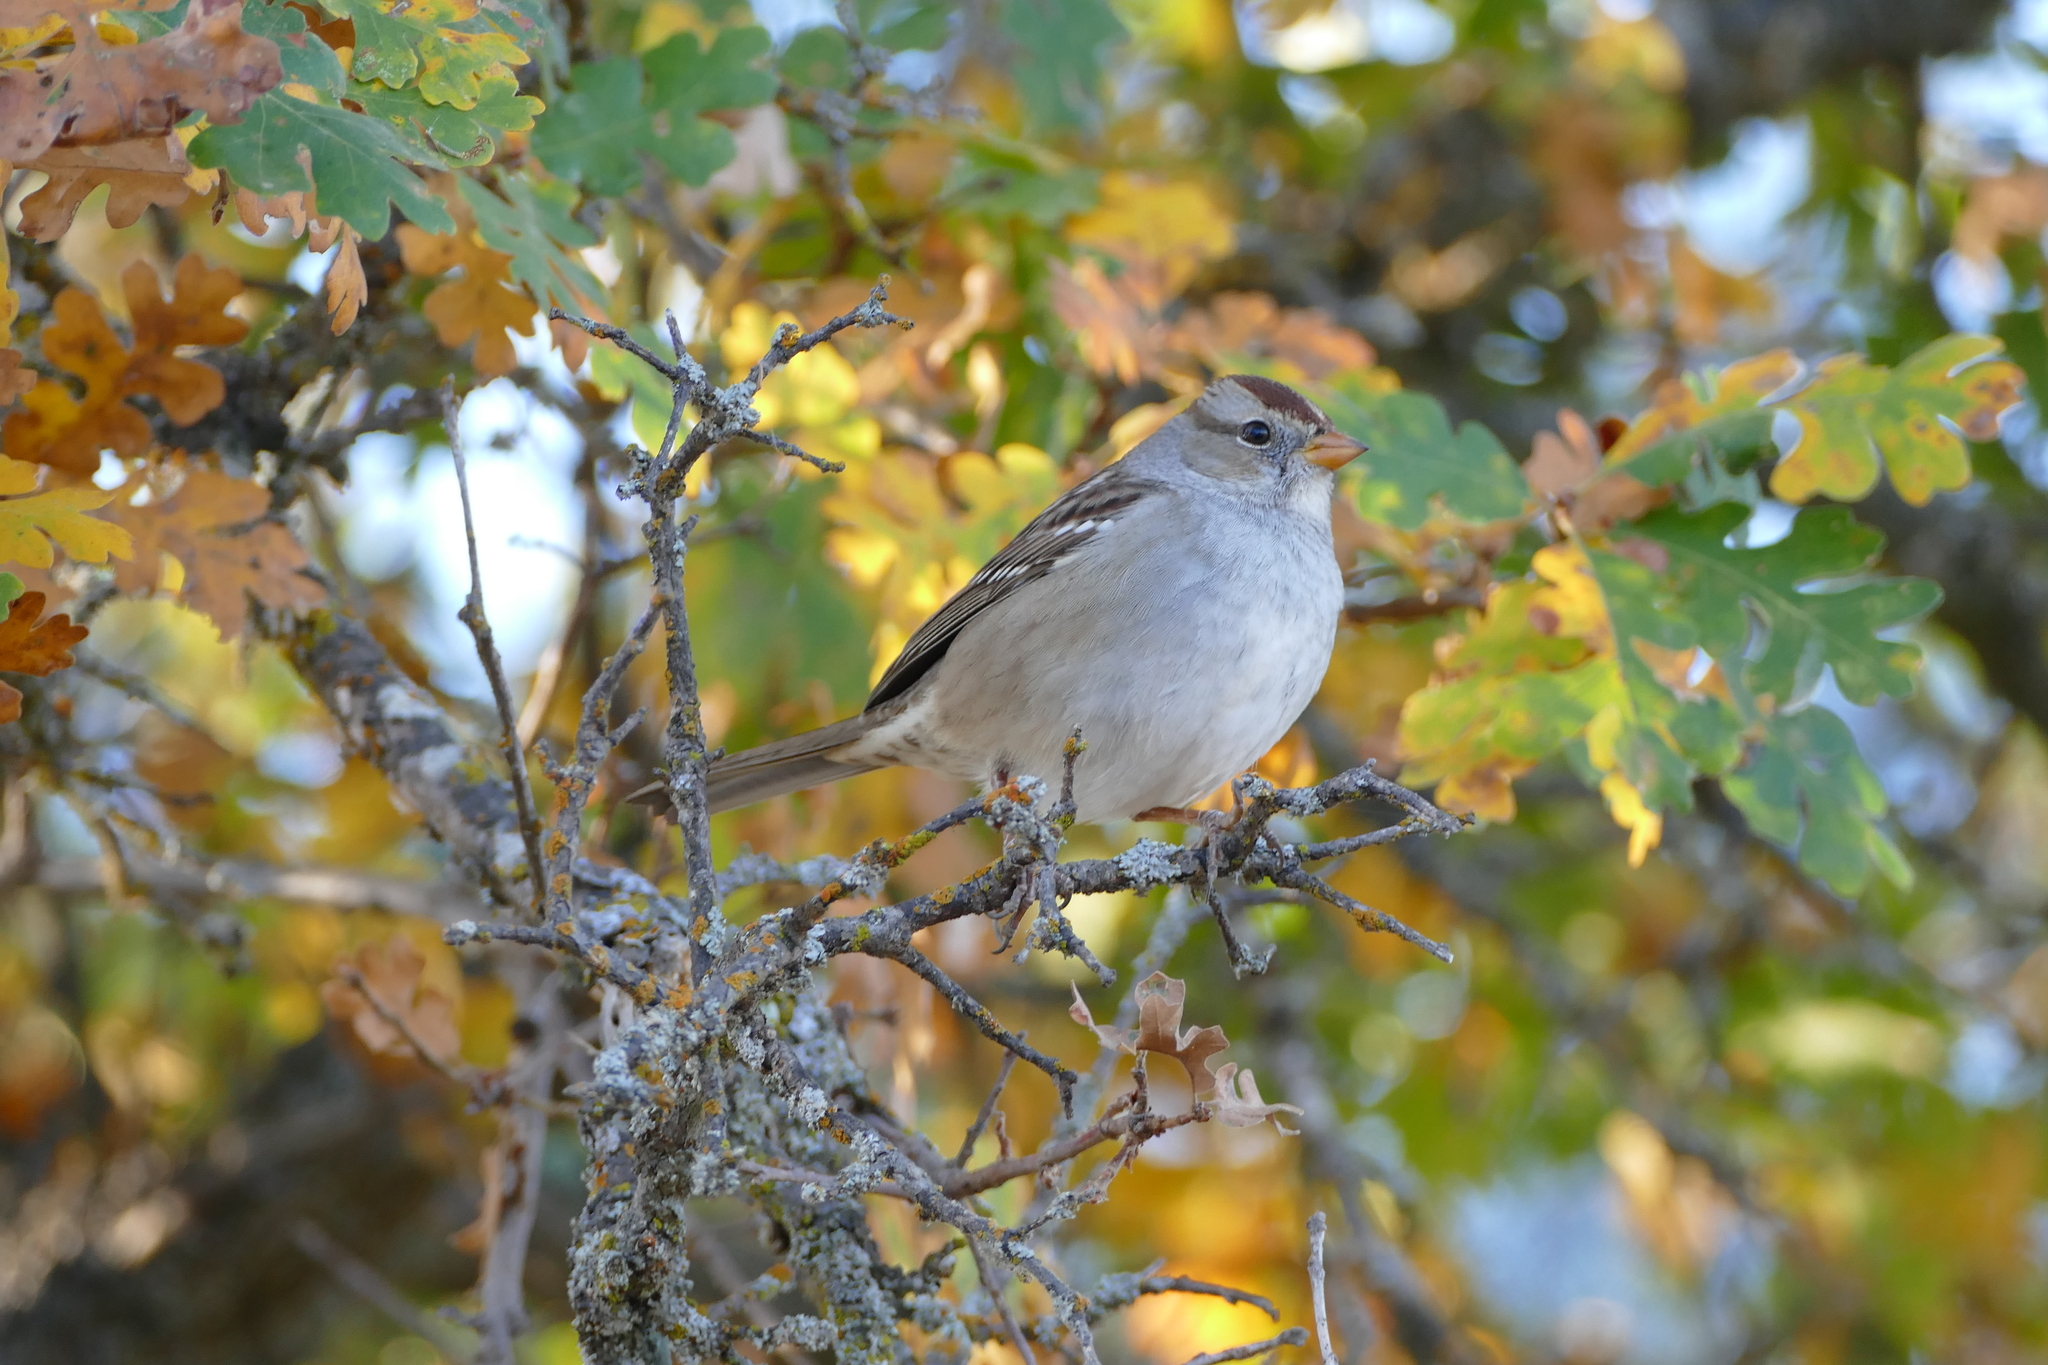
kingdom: Animalia
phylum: Chordata
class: Aves
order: Passeriformes
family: Passerellidae
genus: Zonotrichia
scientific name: Zonotrichia leucophrys
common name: White-crowned sparrow
